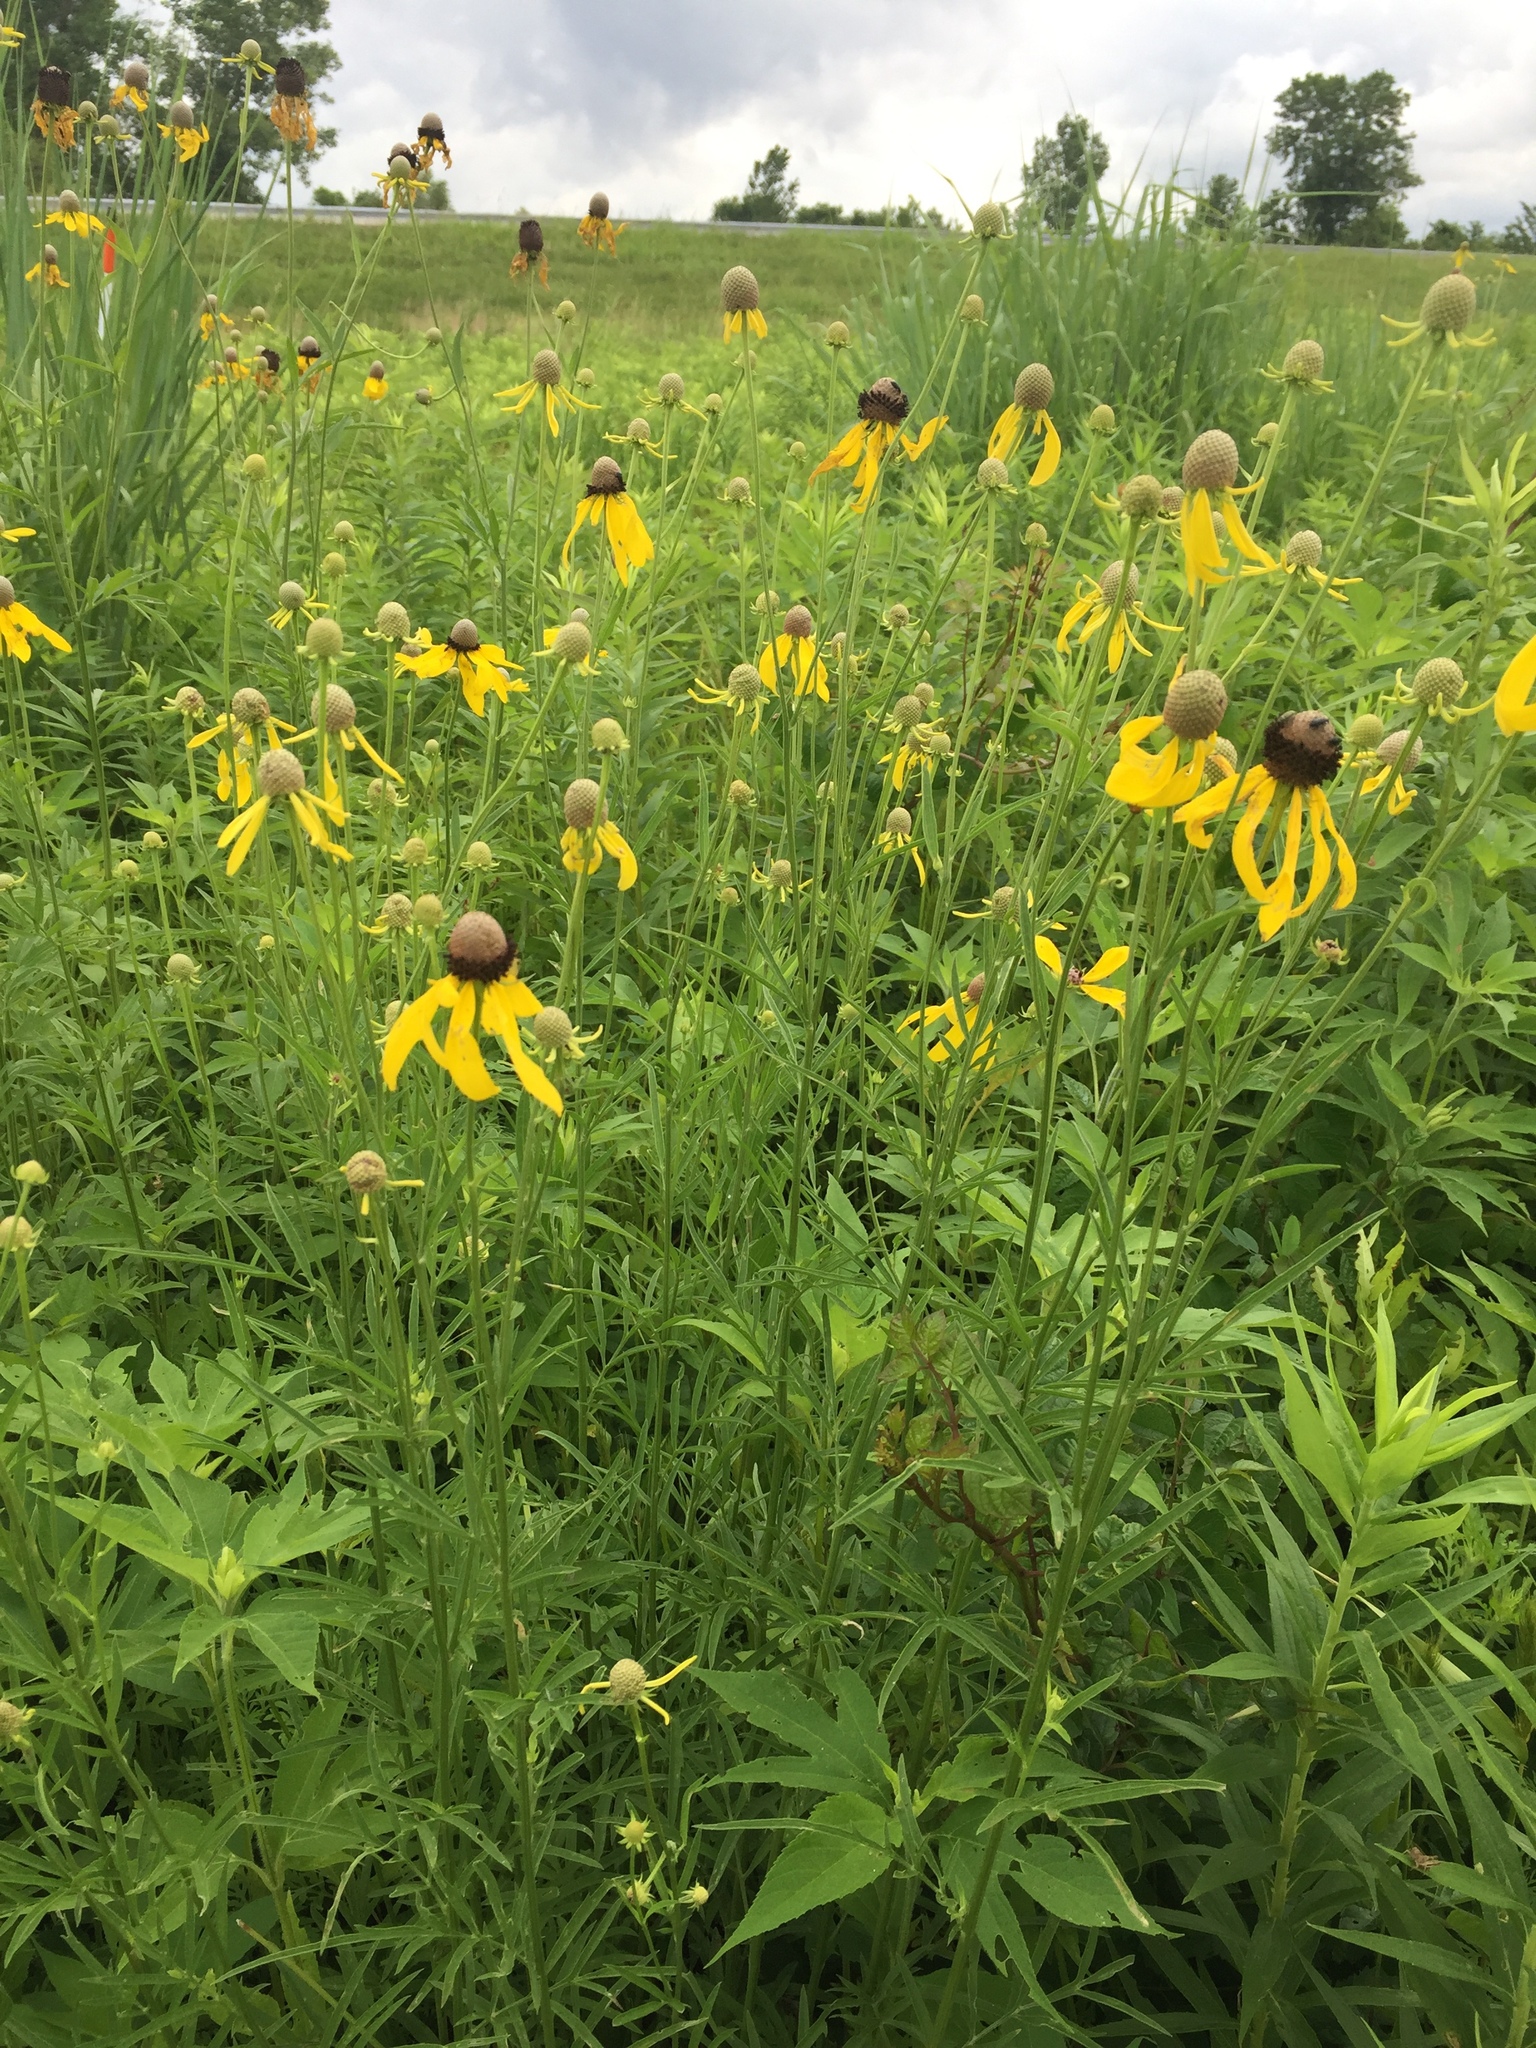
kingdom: Plantae
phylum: Tracheophyta
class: Magnoliopsida
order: Asterales
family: Asteraceae
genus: Ratibida
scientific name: Ratibida pinnata
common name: Drooping prairie-coneflower
